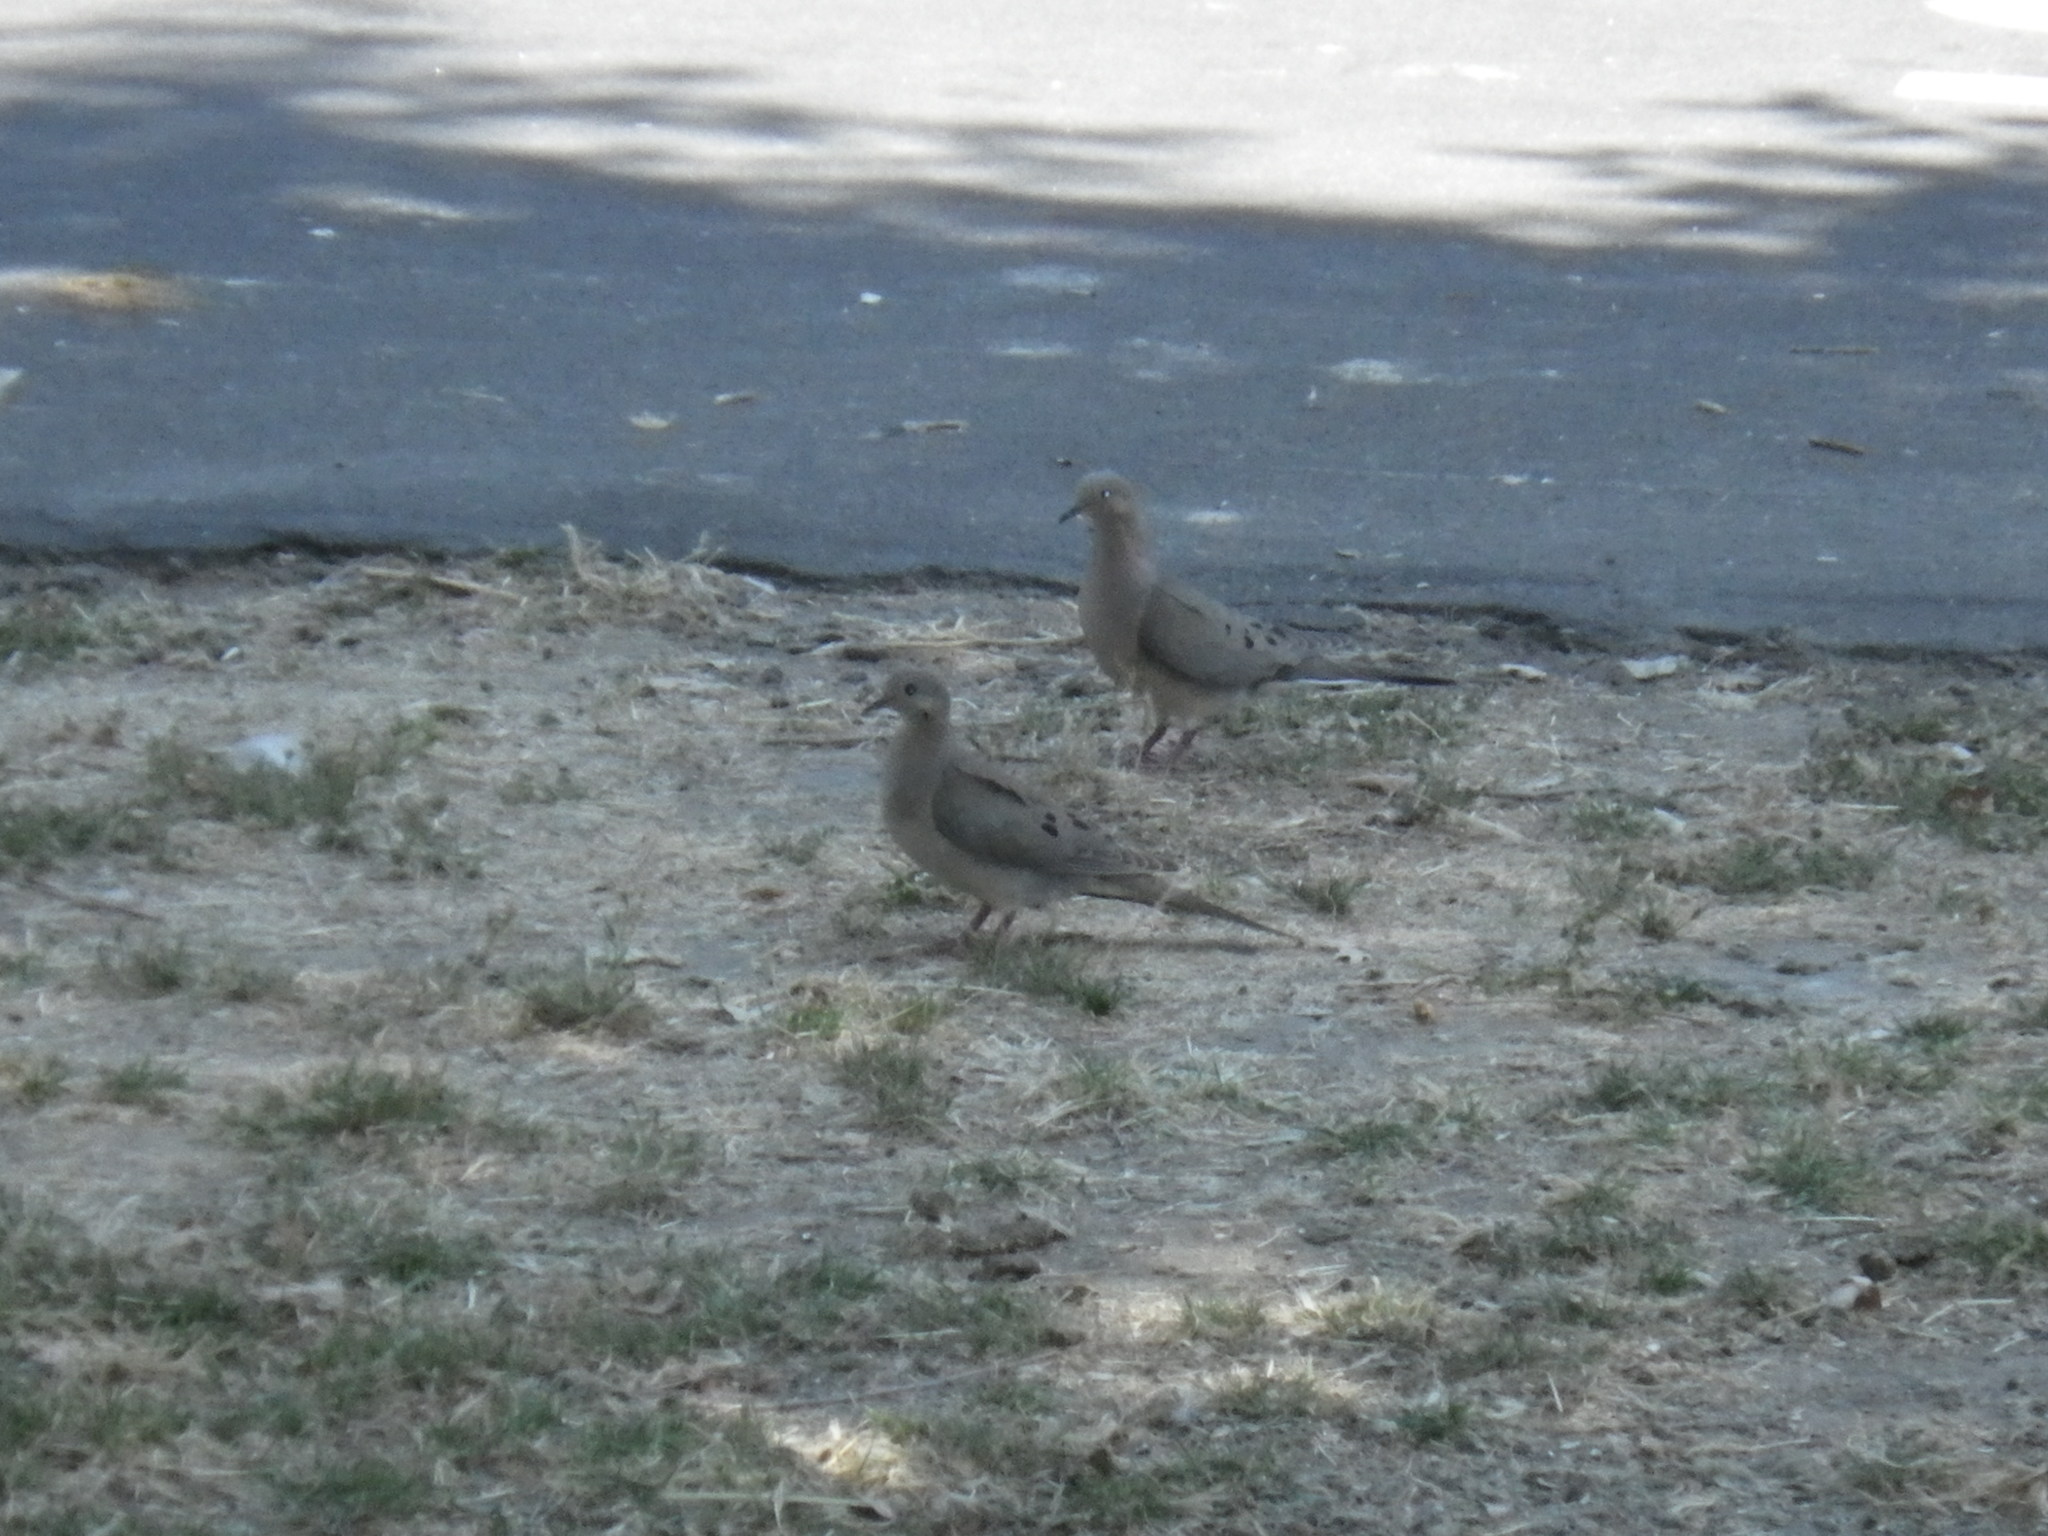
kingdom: Animalia
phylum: Chordata
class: Aves
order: Columbiformes
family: Columbidae
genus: Zenaida
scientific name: Zenaida macroura
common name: Mourning dove
